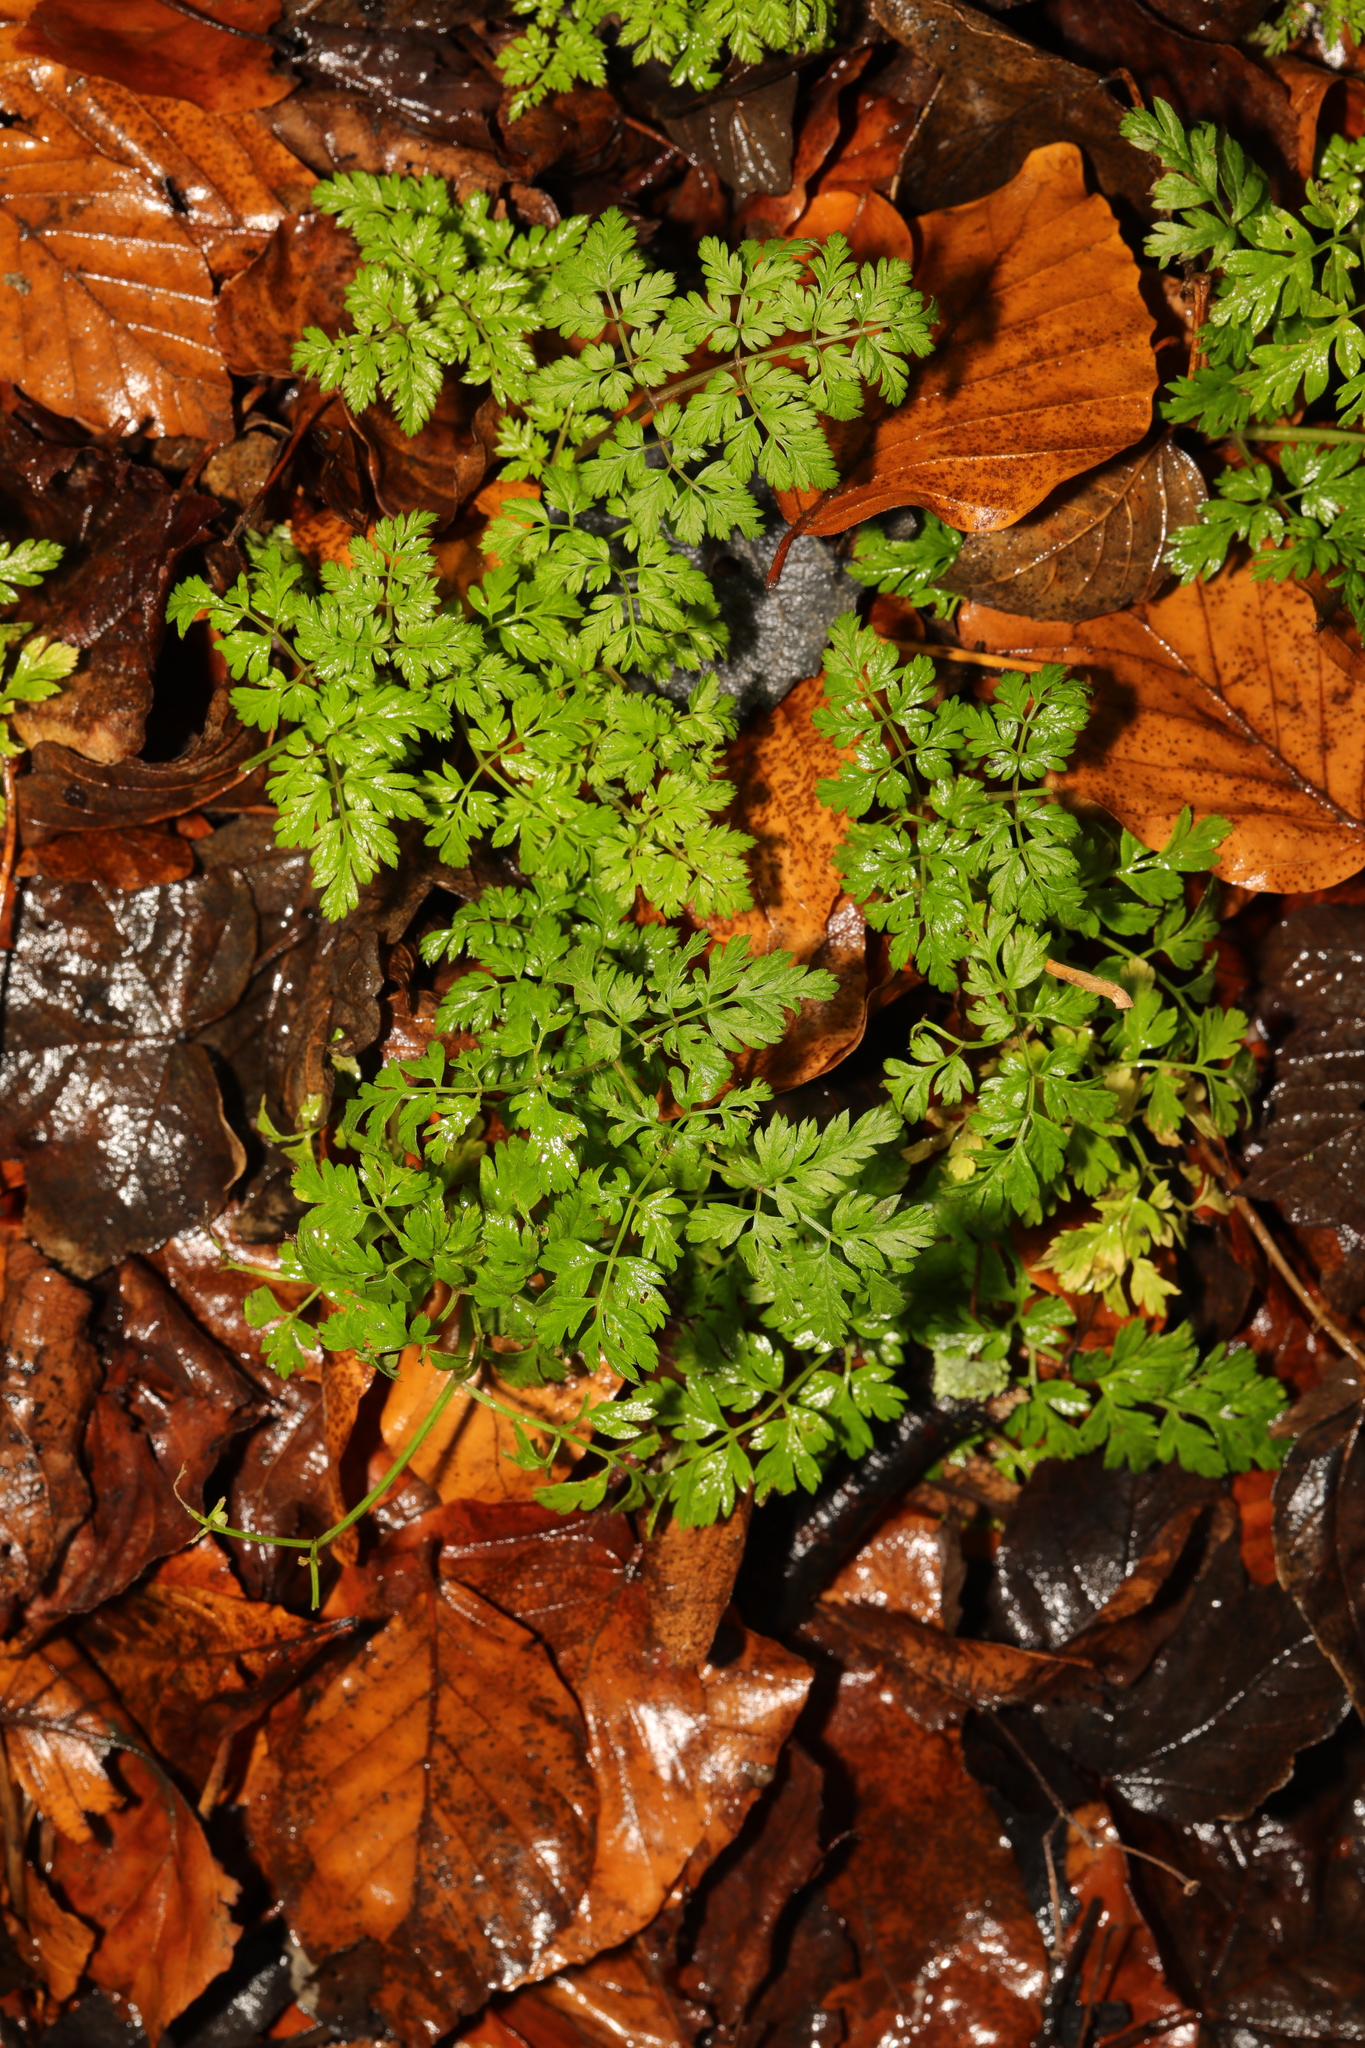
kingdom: Plantae
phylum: Tracheophyta
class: Magnoliopsida
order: Apiales
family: Apiaceae
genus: Anthriscus
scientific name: Anthriscus sylvestris
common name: Cow parsley
